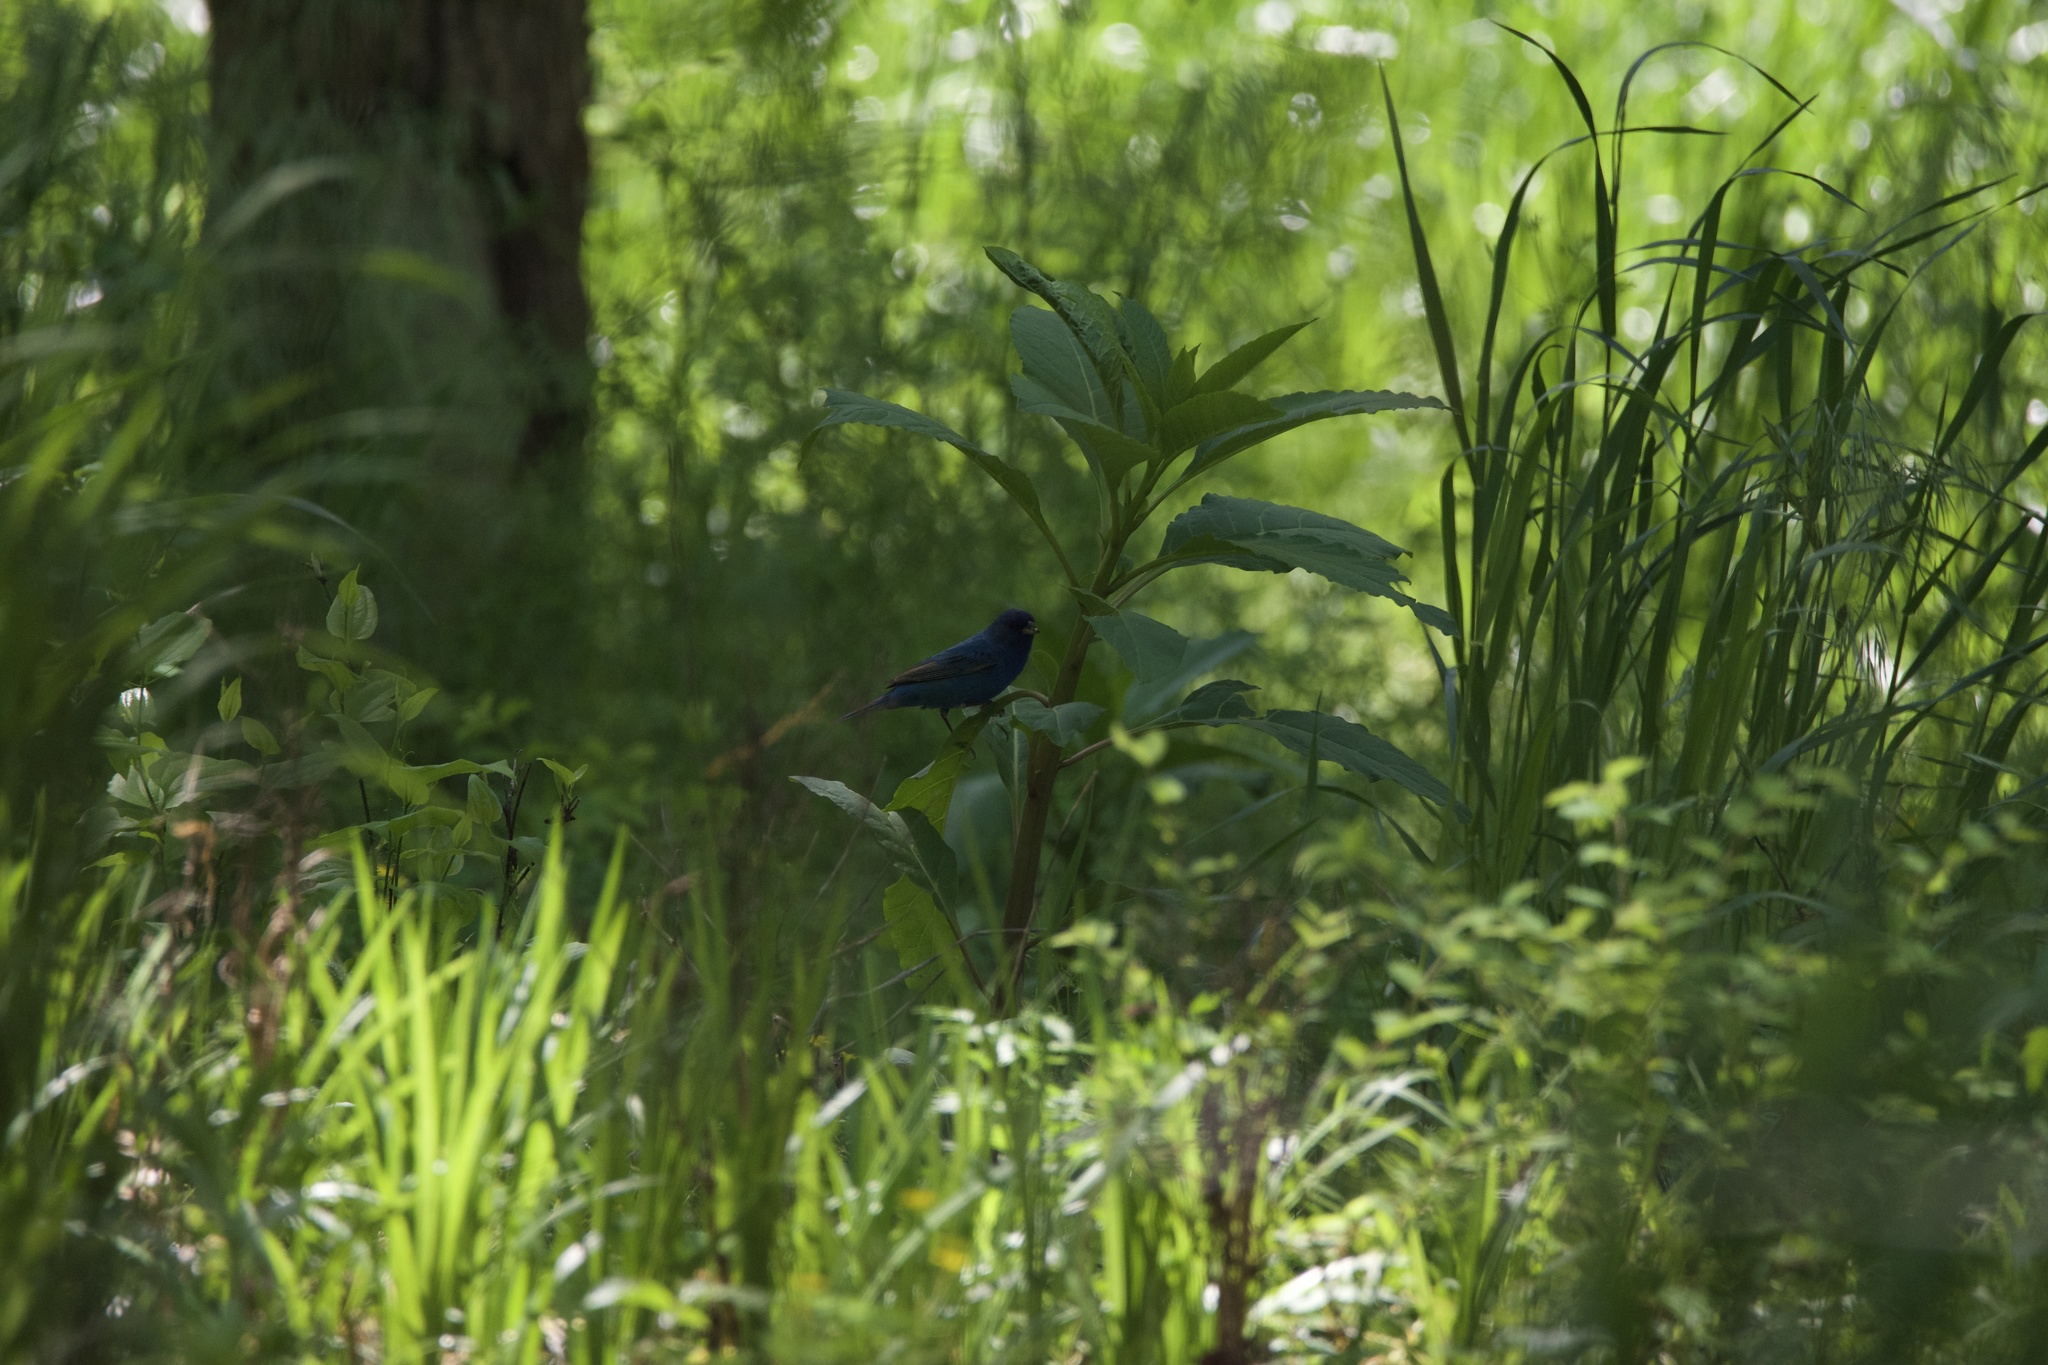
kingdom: Animalia
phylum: Chordata
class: Aves
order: Passeriformes
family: Cardinalidae
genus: Passerina
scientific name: Passerina cyanea
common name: Indigo bunting
